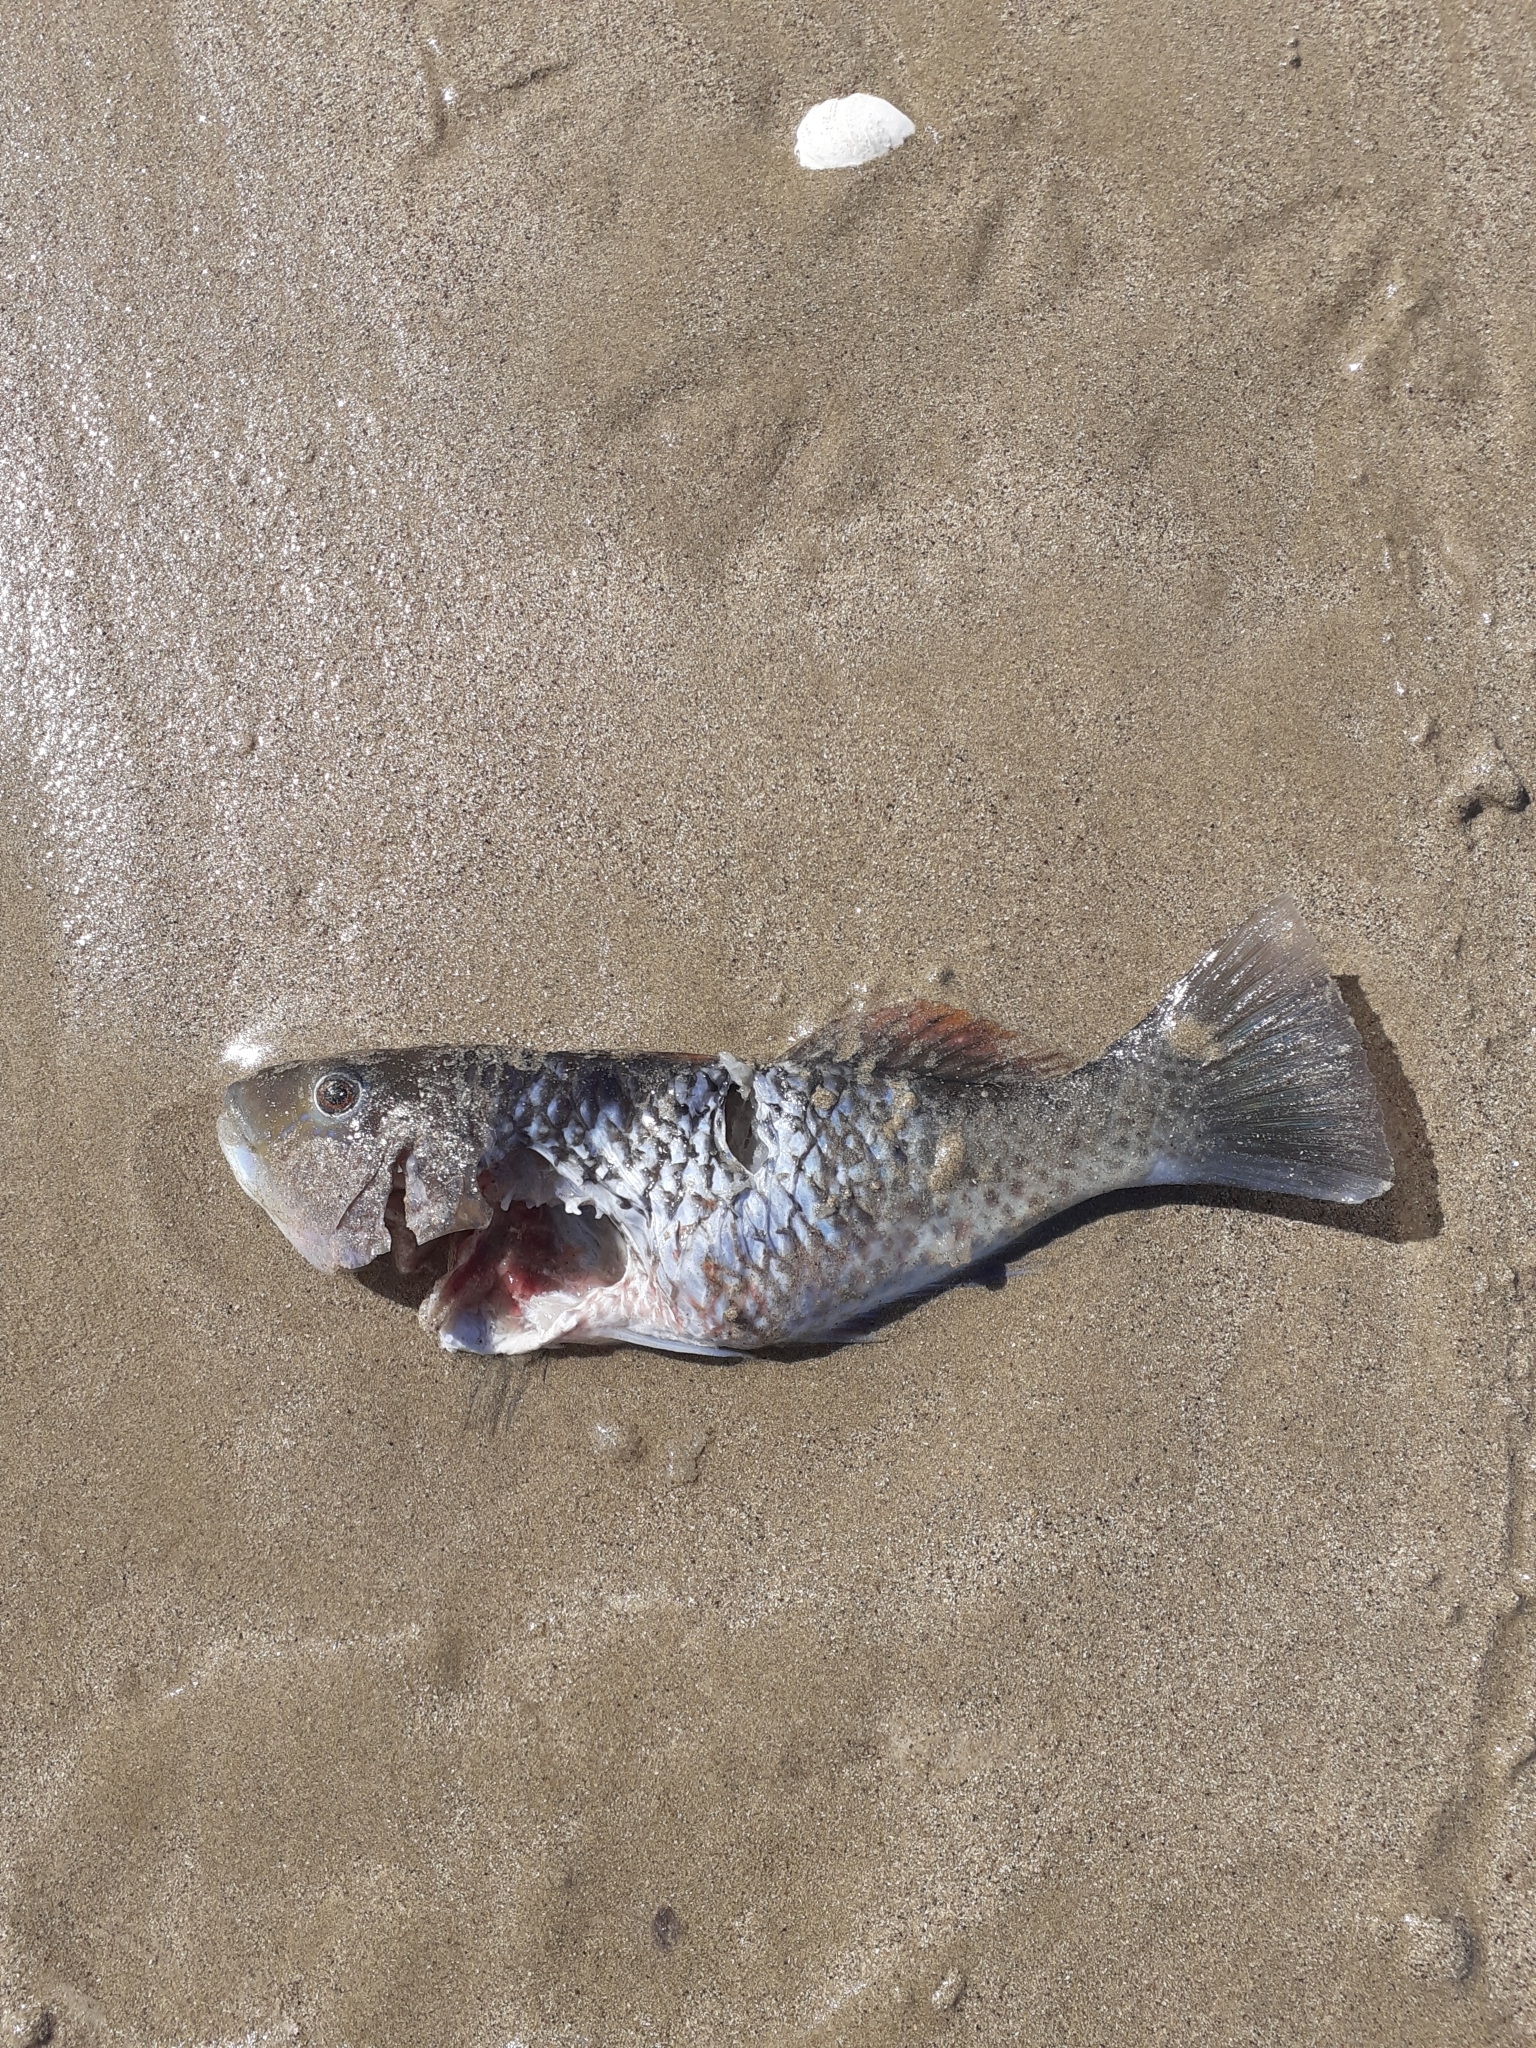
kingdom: Animalia
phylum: Chordata
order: Perciformes
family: Labridae
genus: Notolabrus
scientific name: Notolabrus celidotus
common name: Spotty
